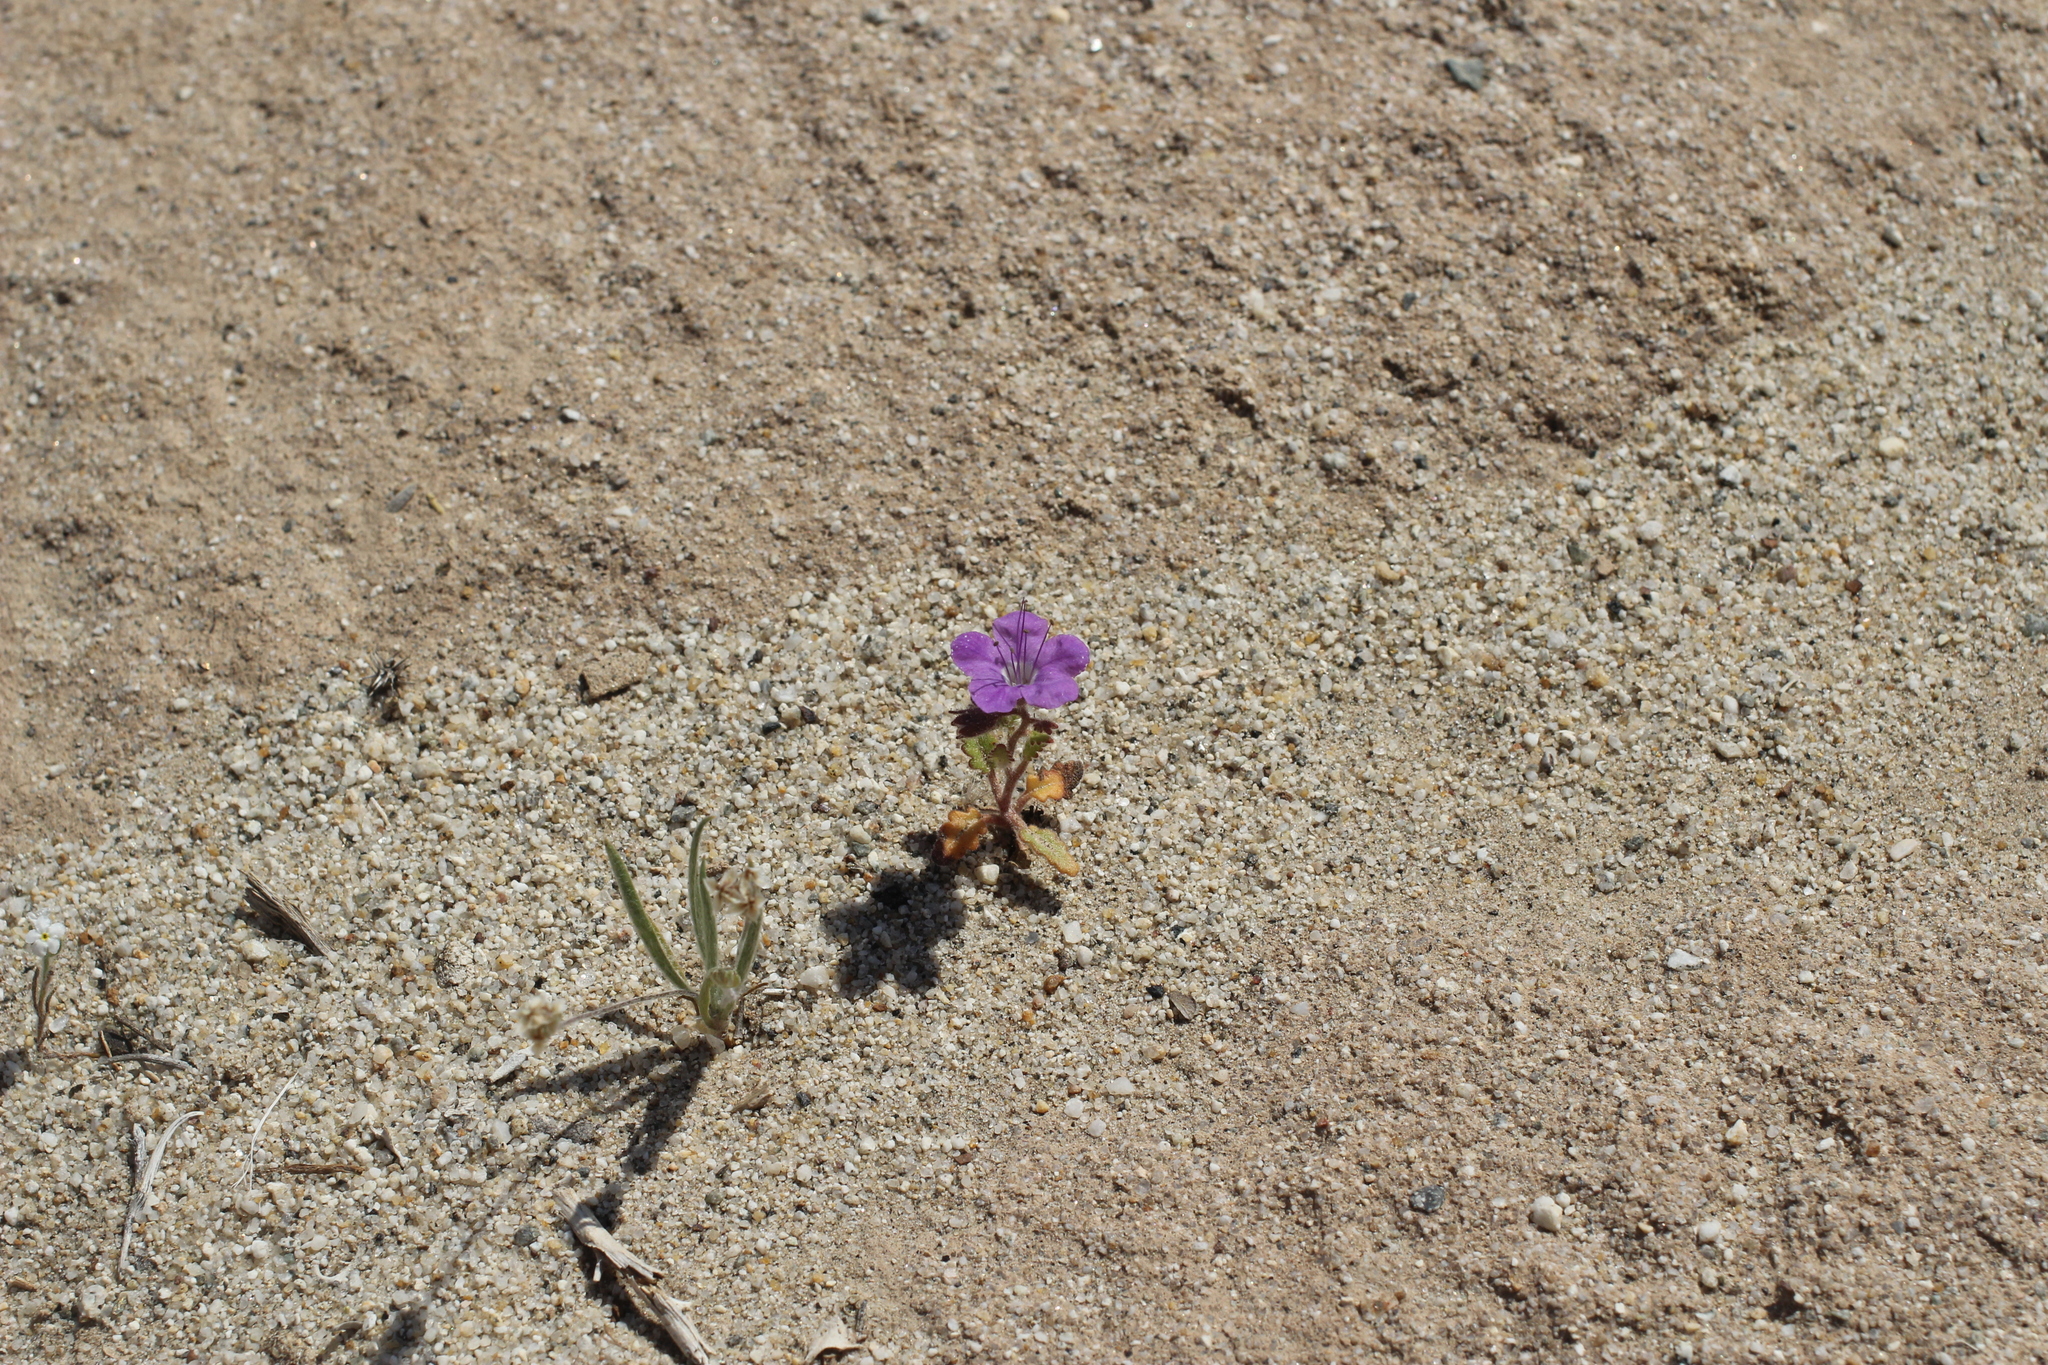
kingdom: Plantae
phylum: Tracheophyta
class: Magnoliopsida
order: Boraginales
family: Hydrophyllaceae
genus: Phacelia
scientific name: Phacelia crenulata
